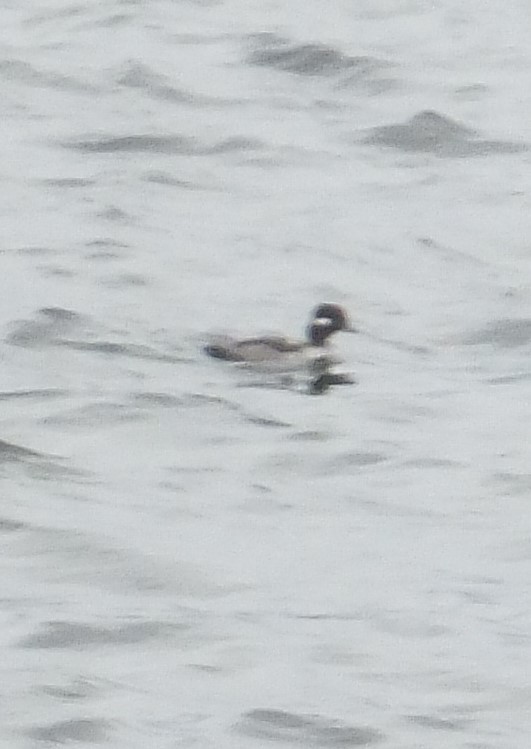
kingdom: Animalia
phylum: Chordata
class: Aves
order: Anseriformes
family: Anatidae
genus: Bucephala
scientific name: Bucephala albeola
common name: Bufflehead
